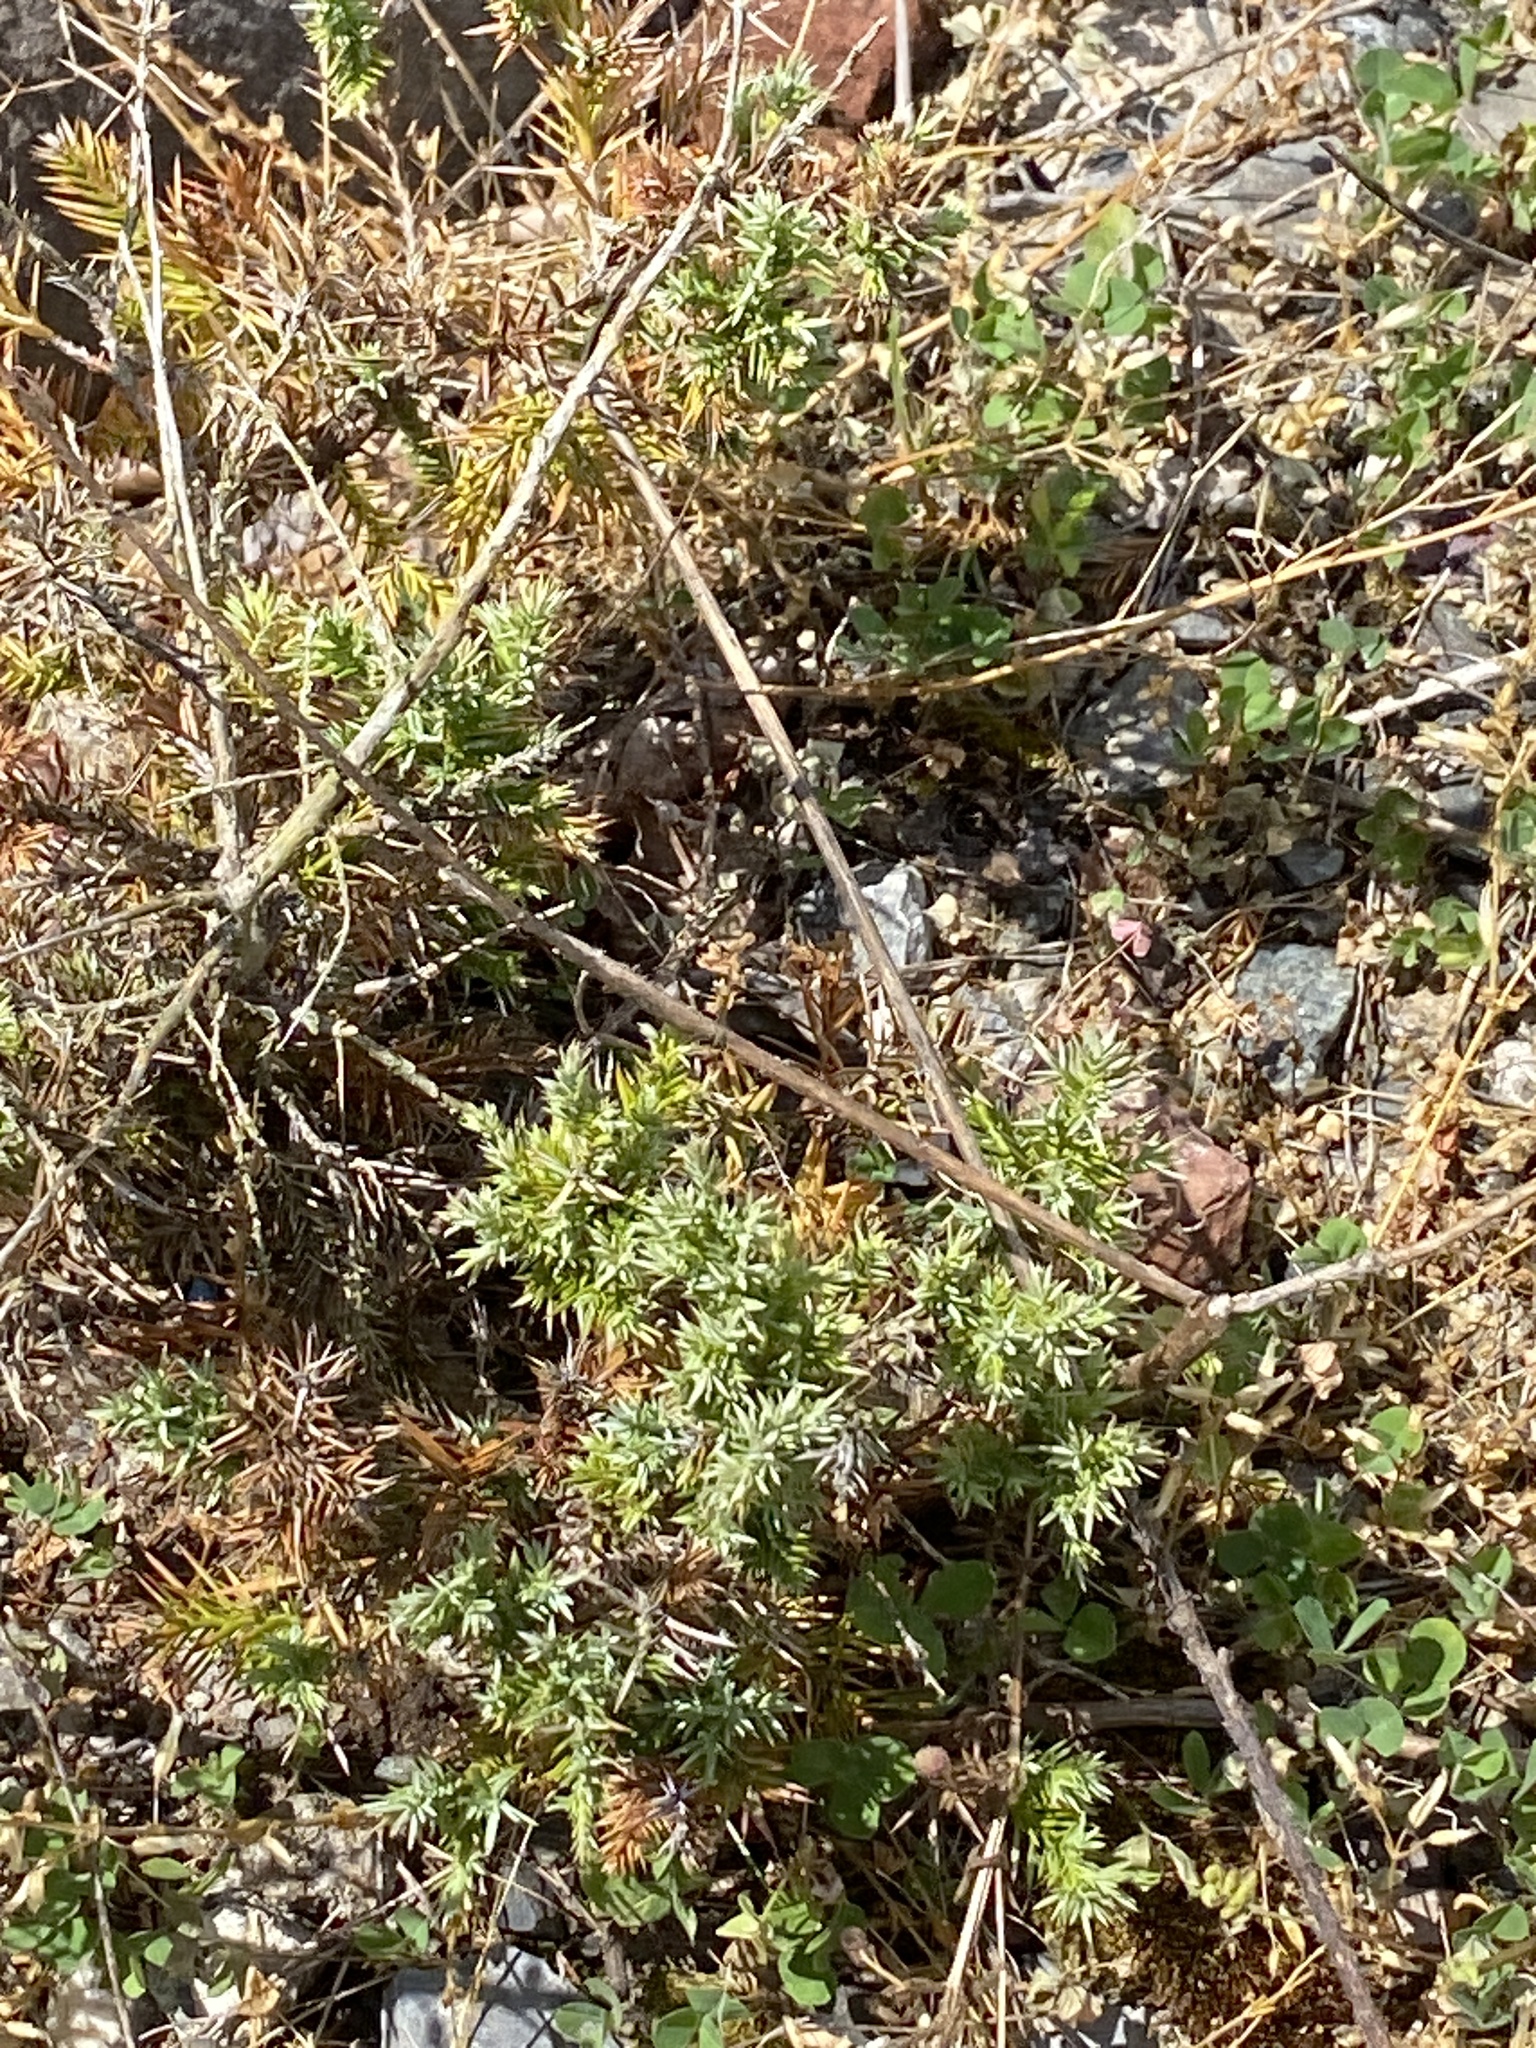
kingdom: Plantae
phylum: Tracheophyta
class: Pinopsida
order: Pinales
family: Cupressaceae
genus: Juniperus
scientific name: Juniperus virginiana
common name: Red juniper
